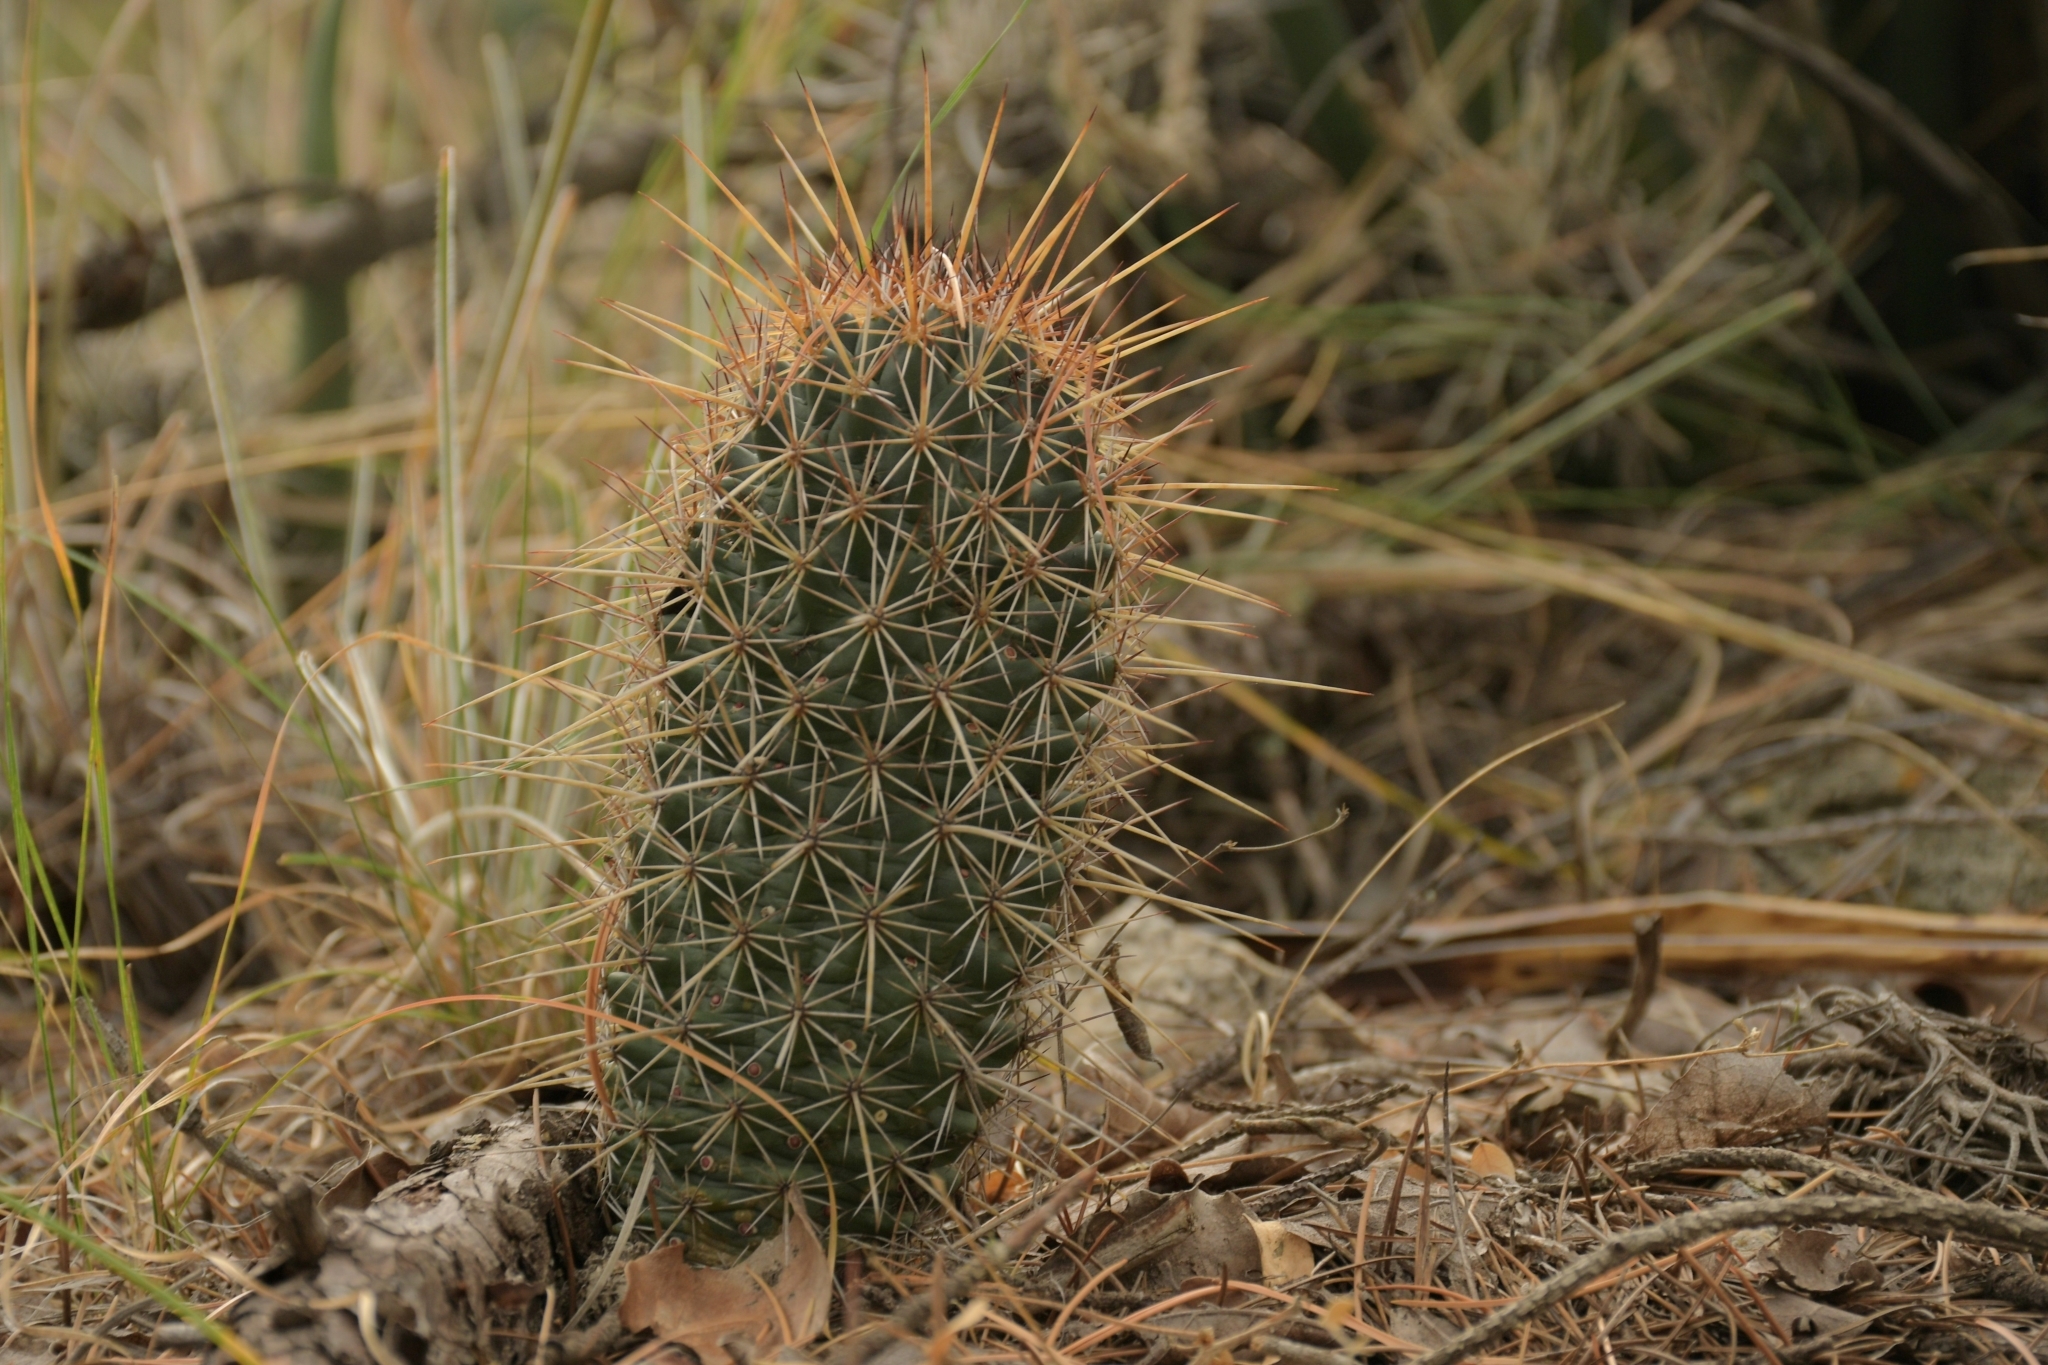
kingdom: Plantae
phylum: Tracheophyta
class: Magnoliopsida
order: Caryophyllales
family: Cactaceae
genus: Coryphantha
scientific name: Coryphantha clavata
